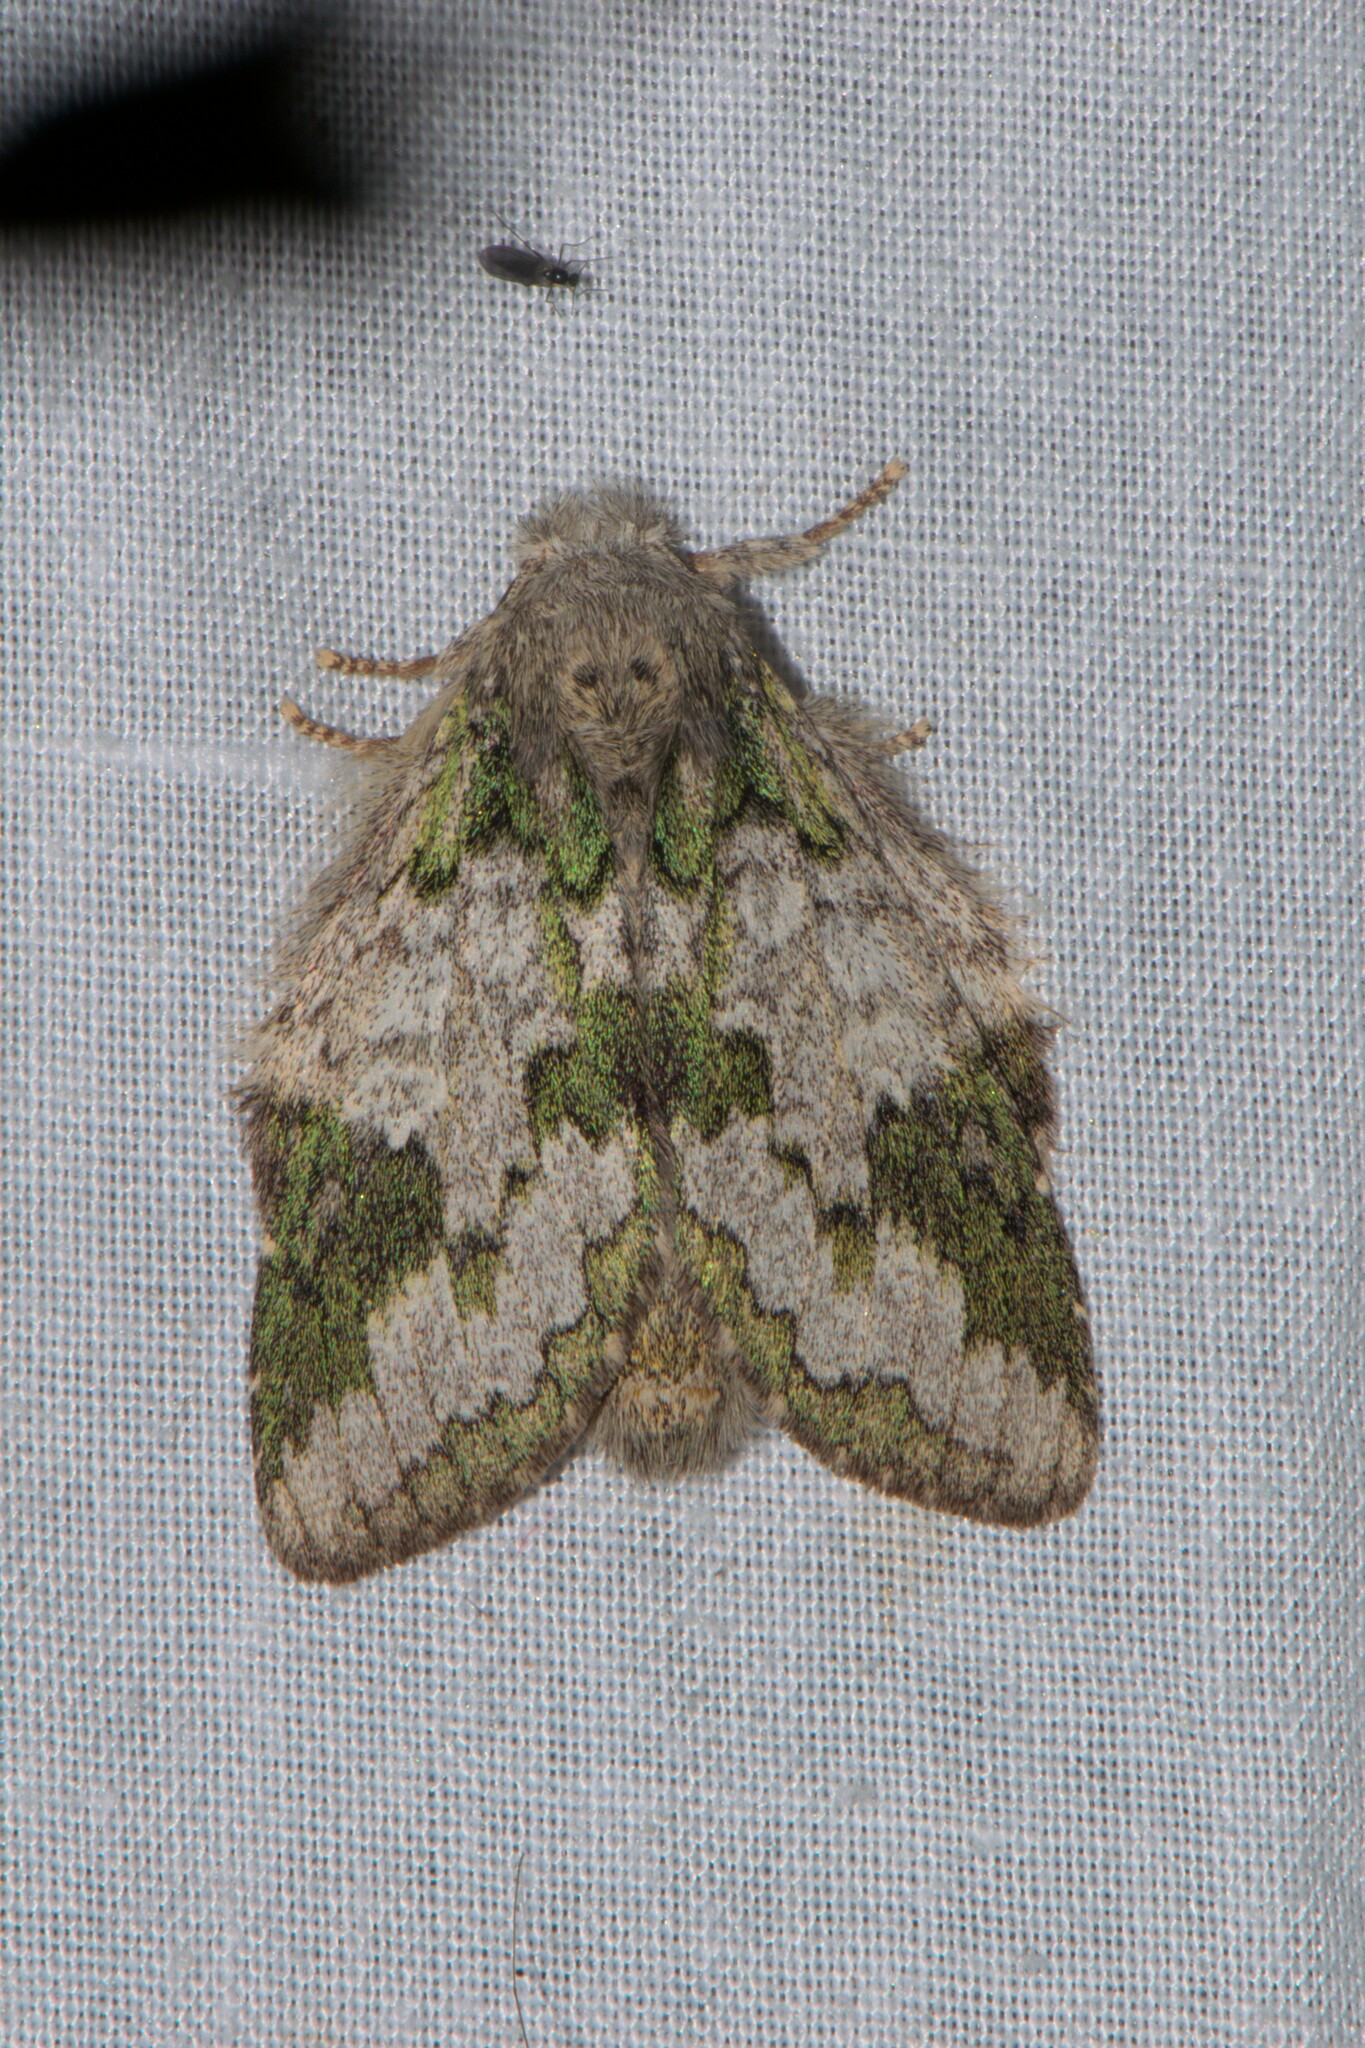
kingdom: Animalia
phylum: Arthropoda
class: Insecta
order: Lepidoptera
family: Notodontidae
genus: Syntypistis
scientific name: Syntypistis comatus
